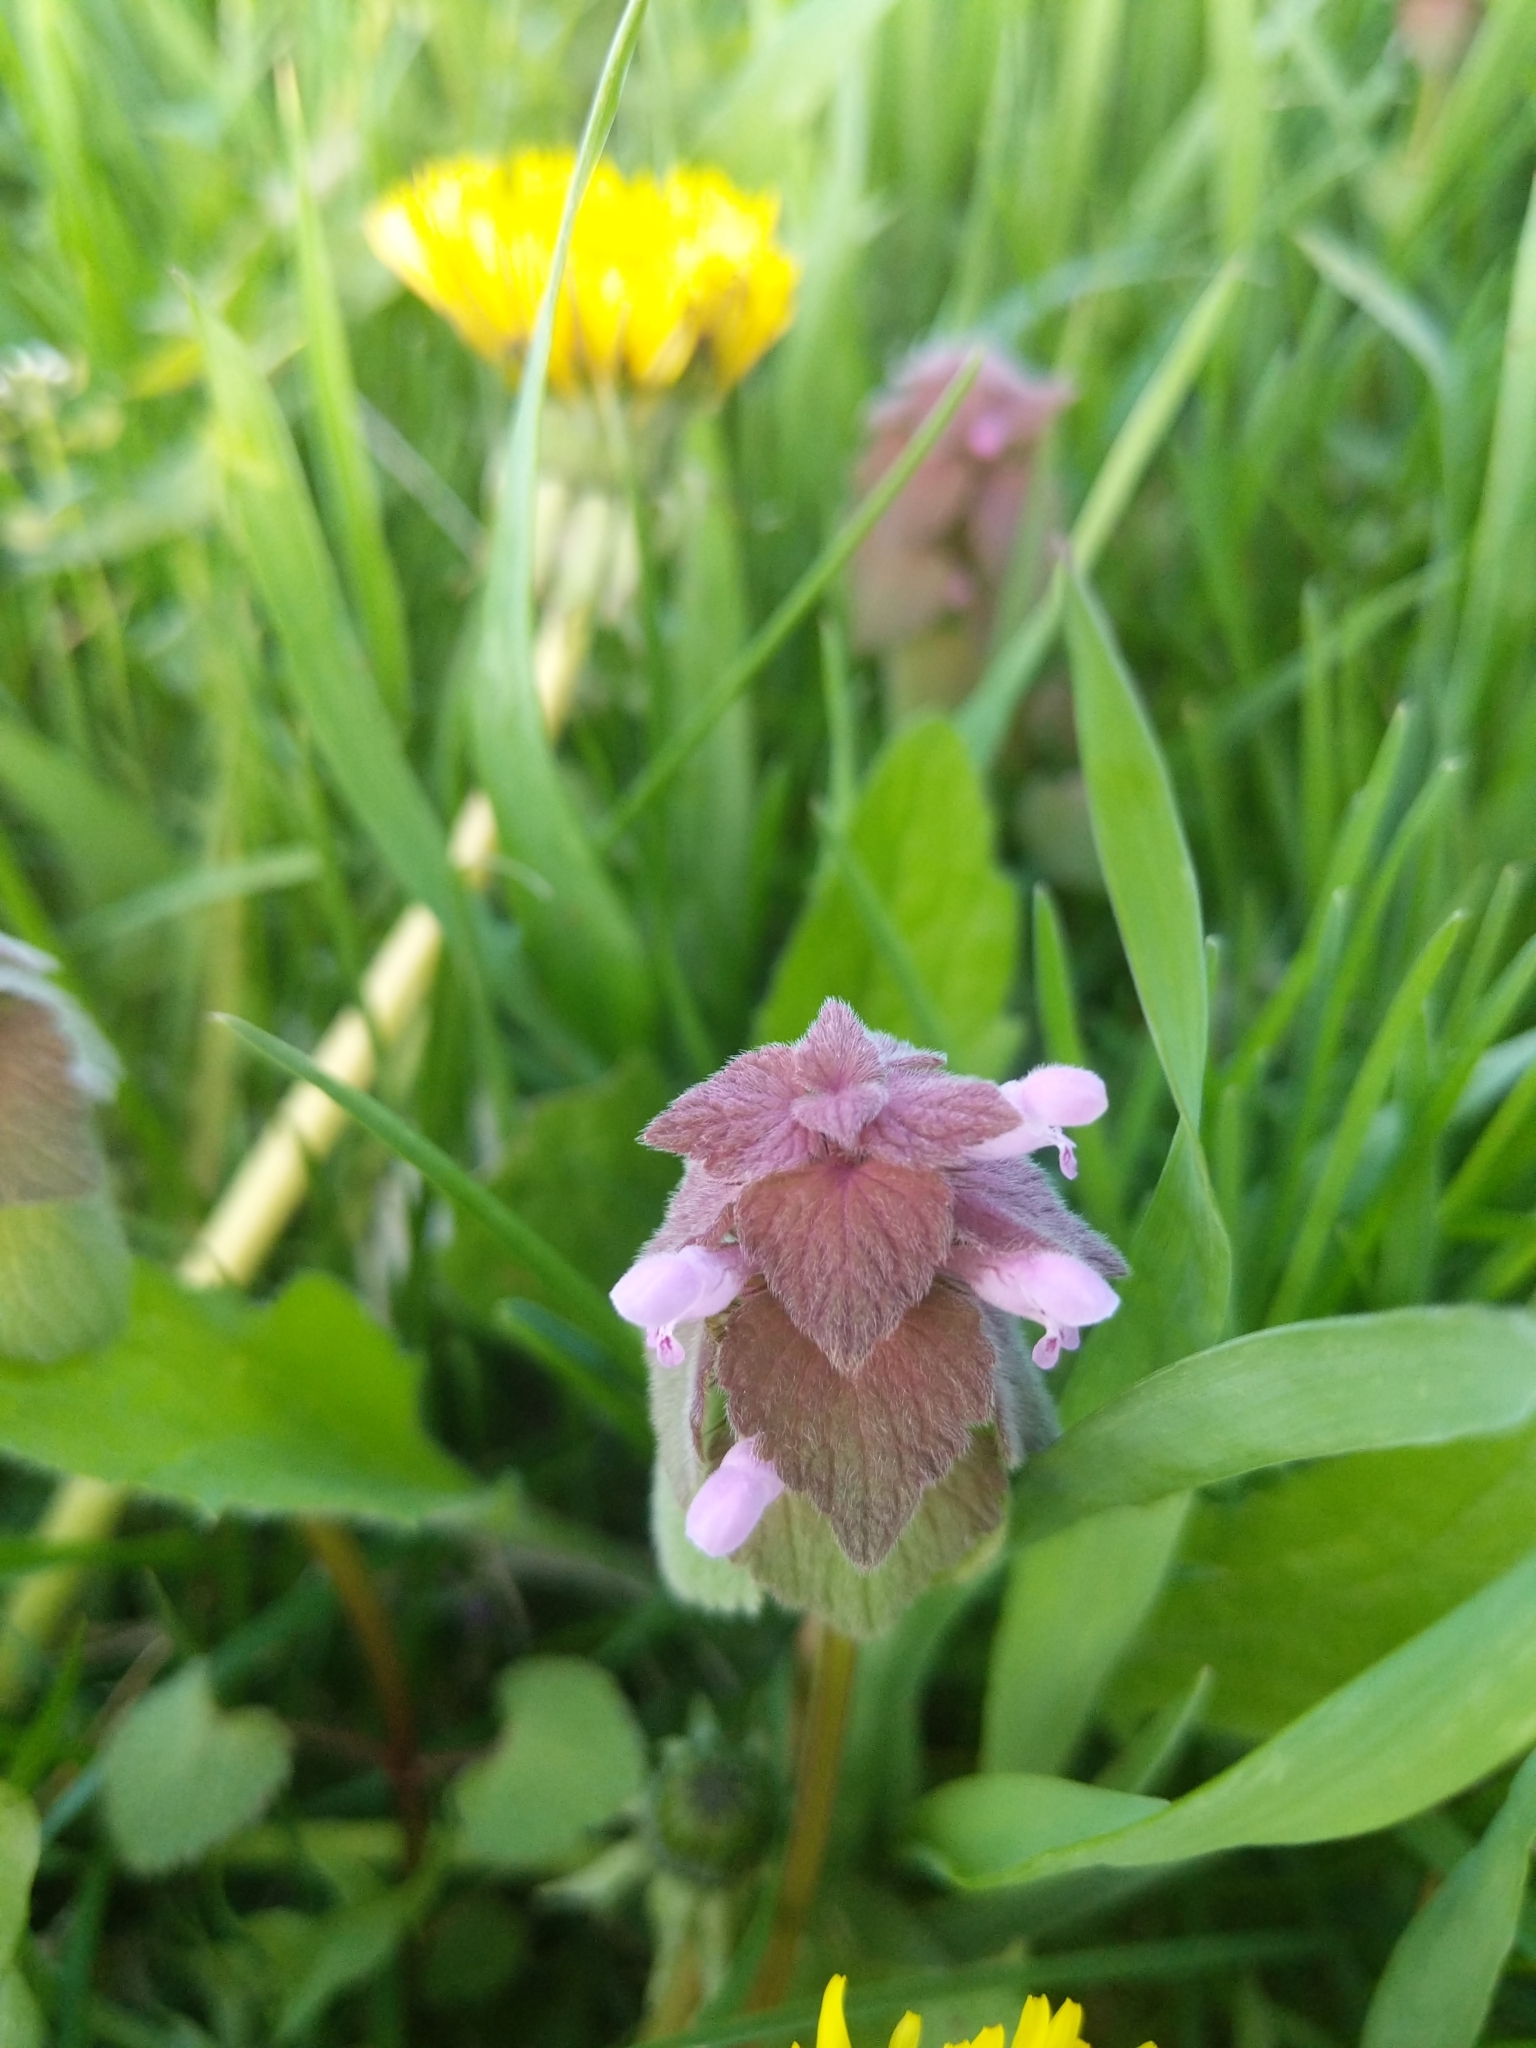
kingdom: Plantae
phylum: Tracheophyta
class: Magnoliopsida
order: Lamiales
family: Lamiaceae
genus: Lamium
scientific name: Lamium purpureum
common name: Red dead-nettle
